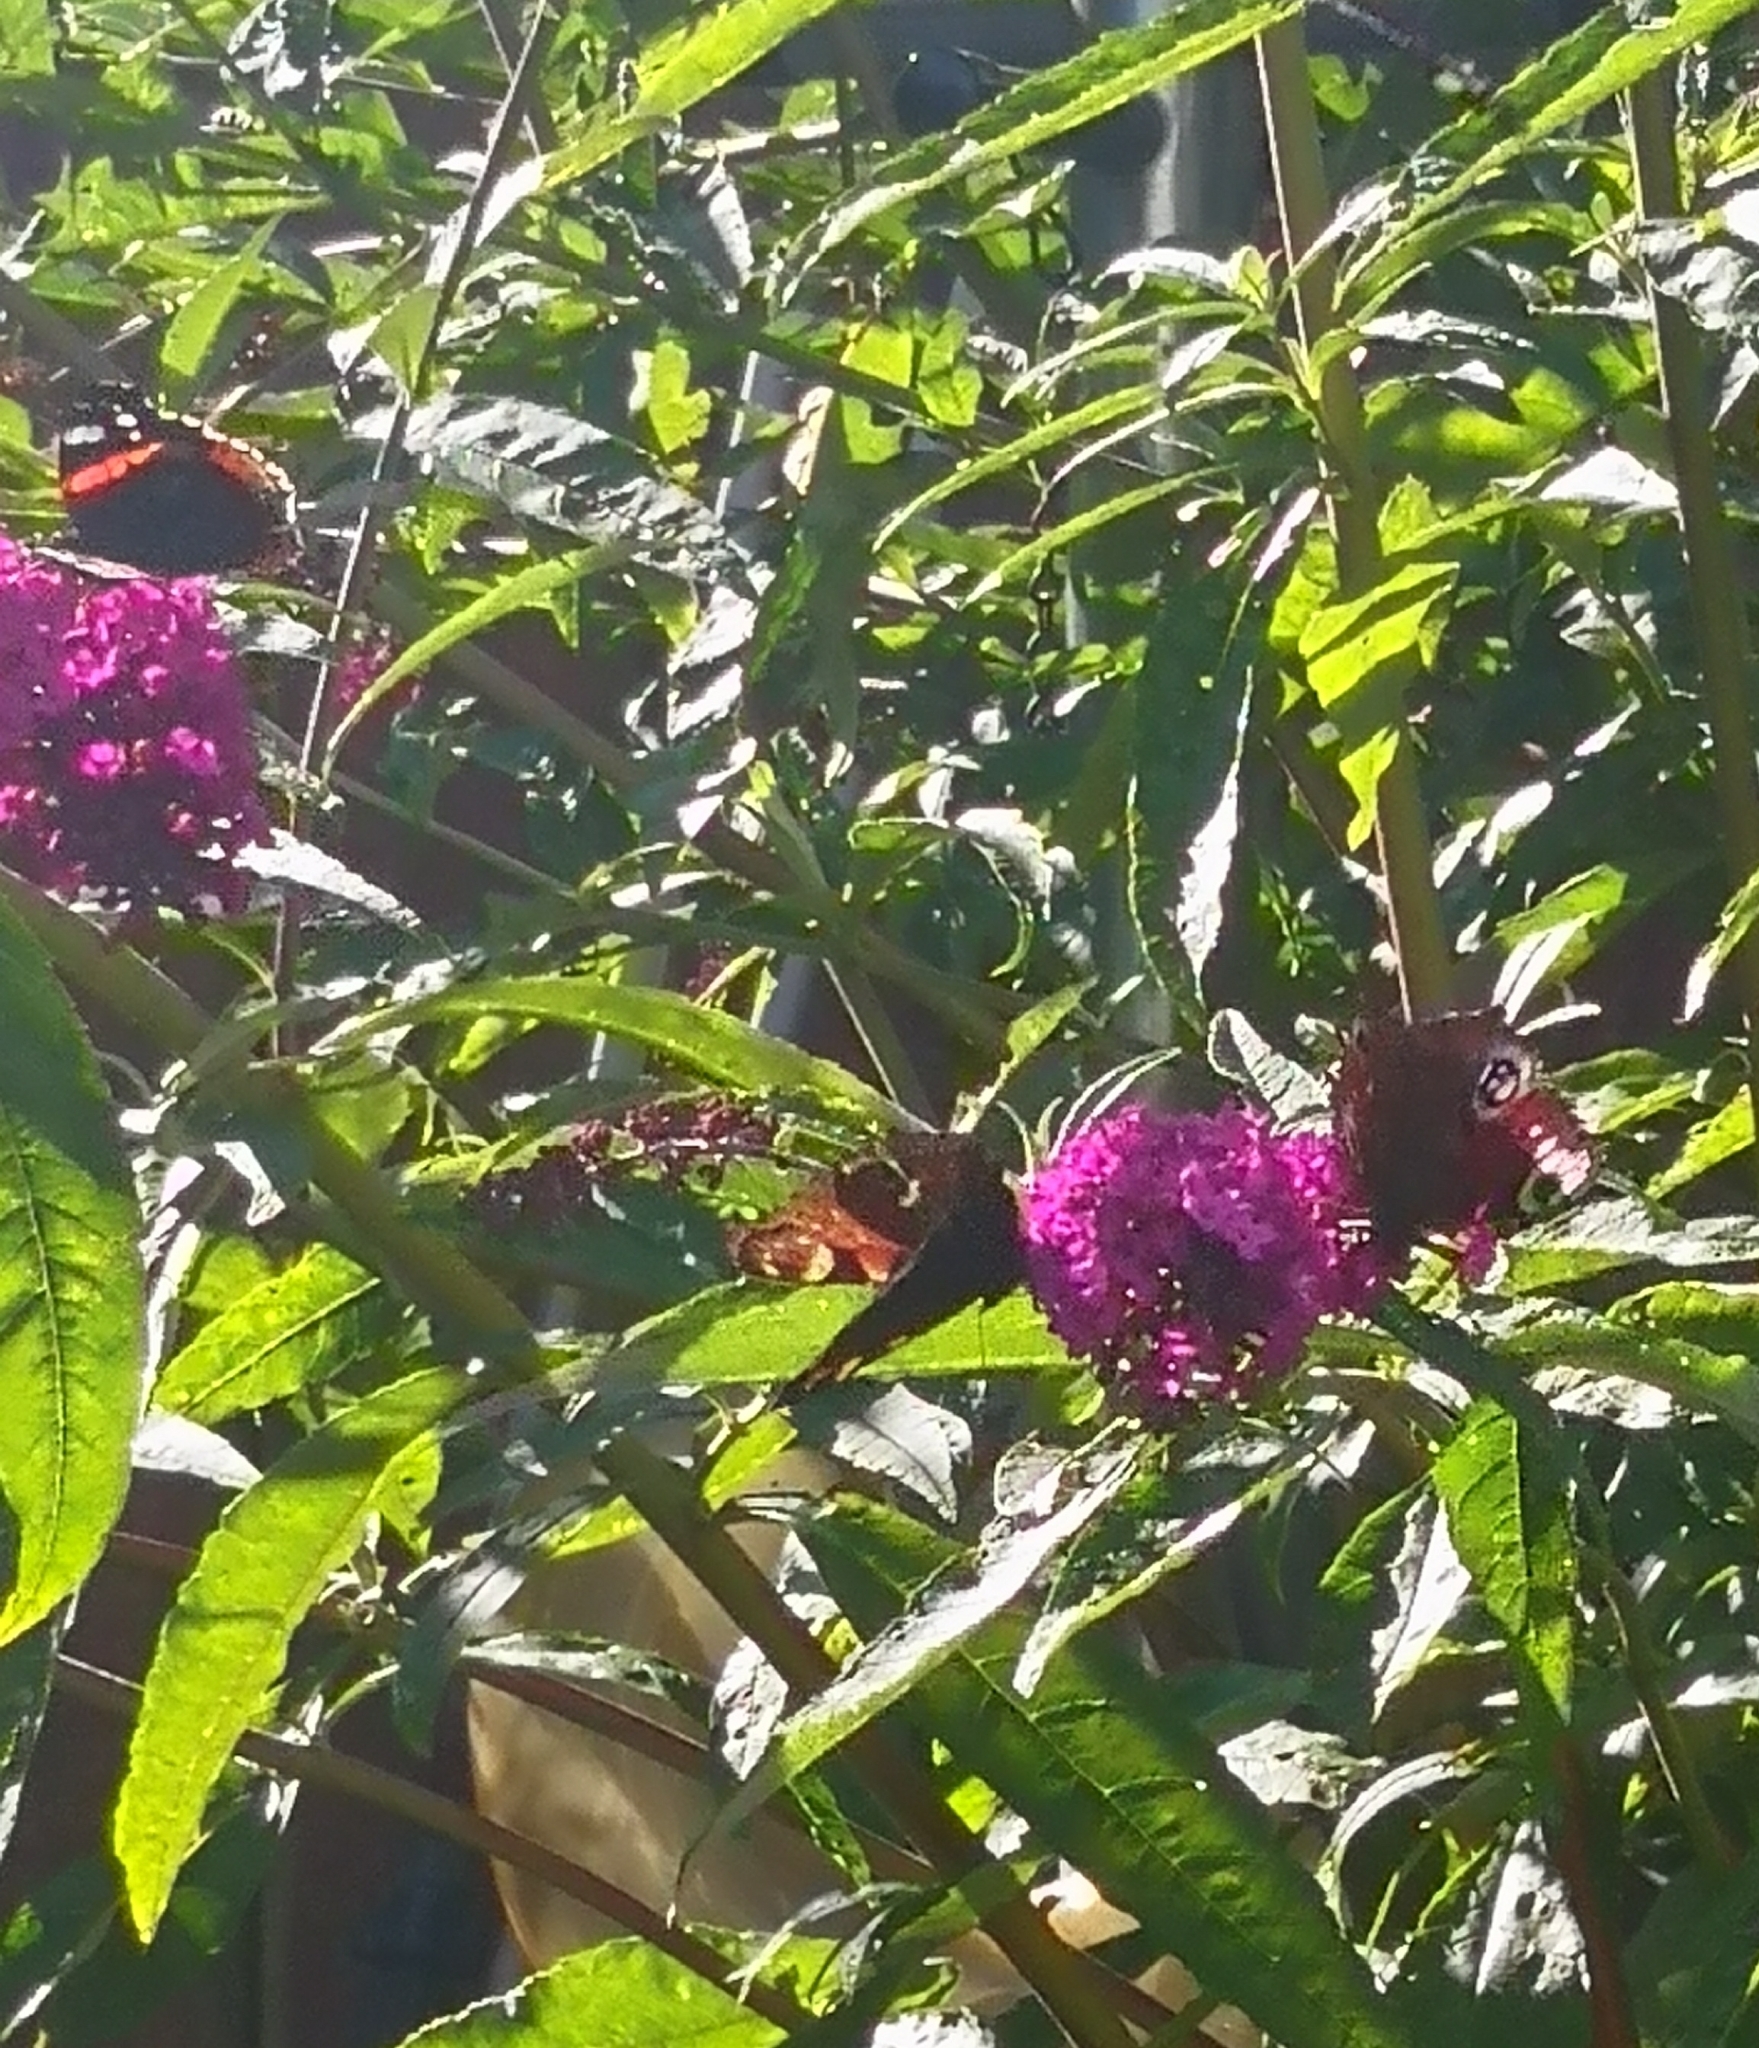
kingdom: Animalia
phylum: Arthropoda
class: Insecta
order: Lepidoptera
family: Nymphalidae
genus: Aglais
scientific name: Aglais io
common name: Peacock
